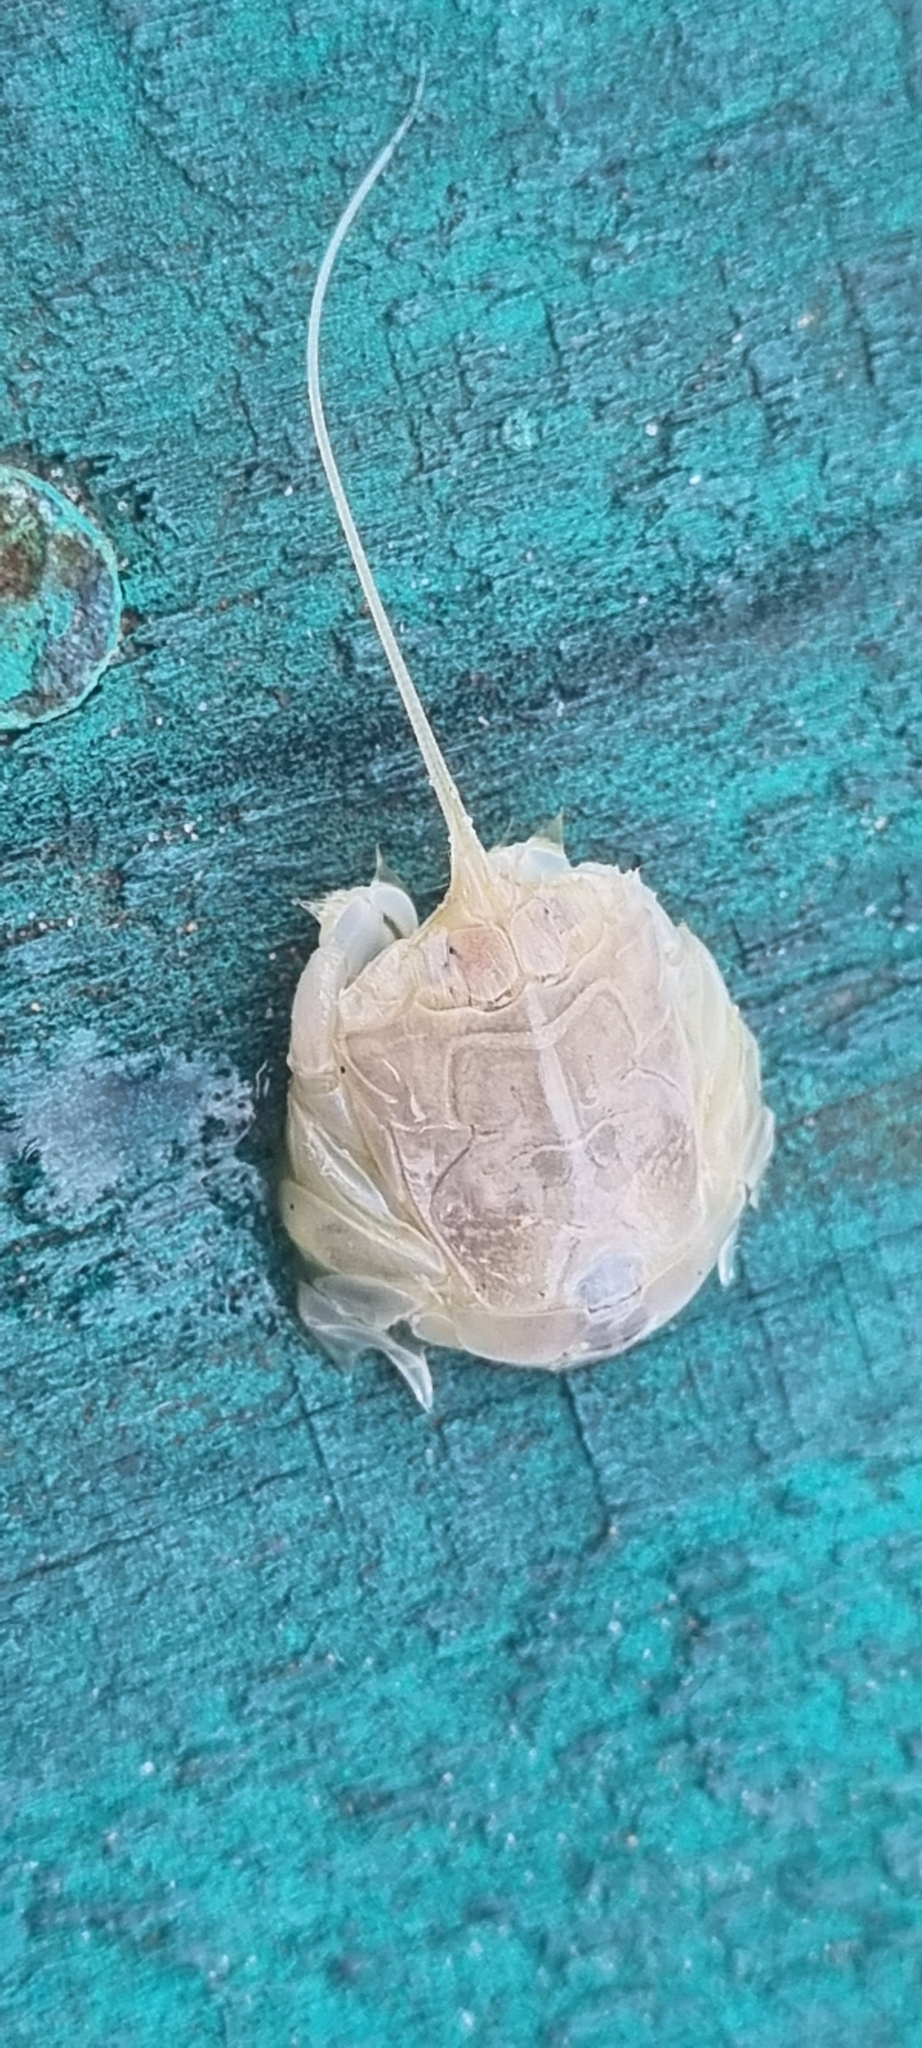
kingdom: Animalia
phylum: Arthropoda
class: Malacostraca
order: Decapoda
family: Albuneidae
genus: Lepidopa
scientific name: Lepidopa benedicti
